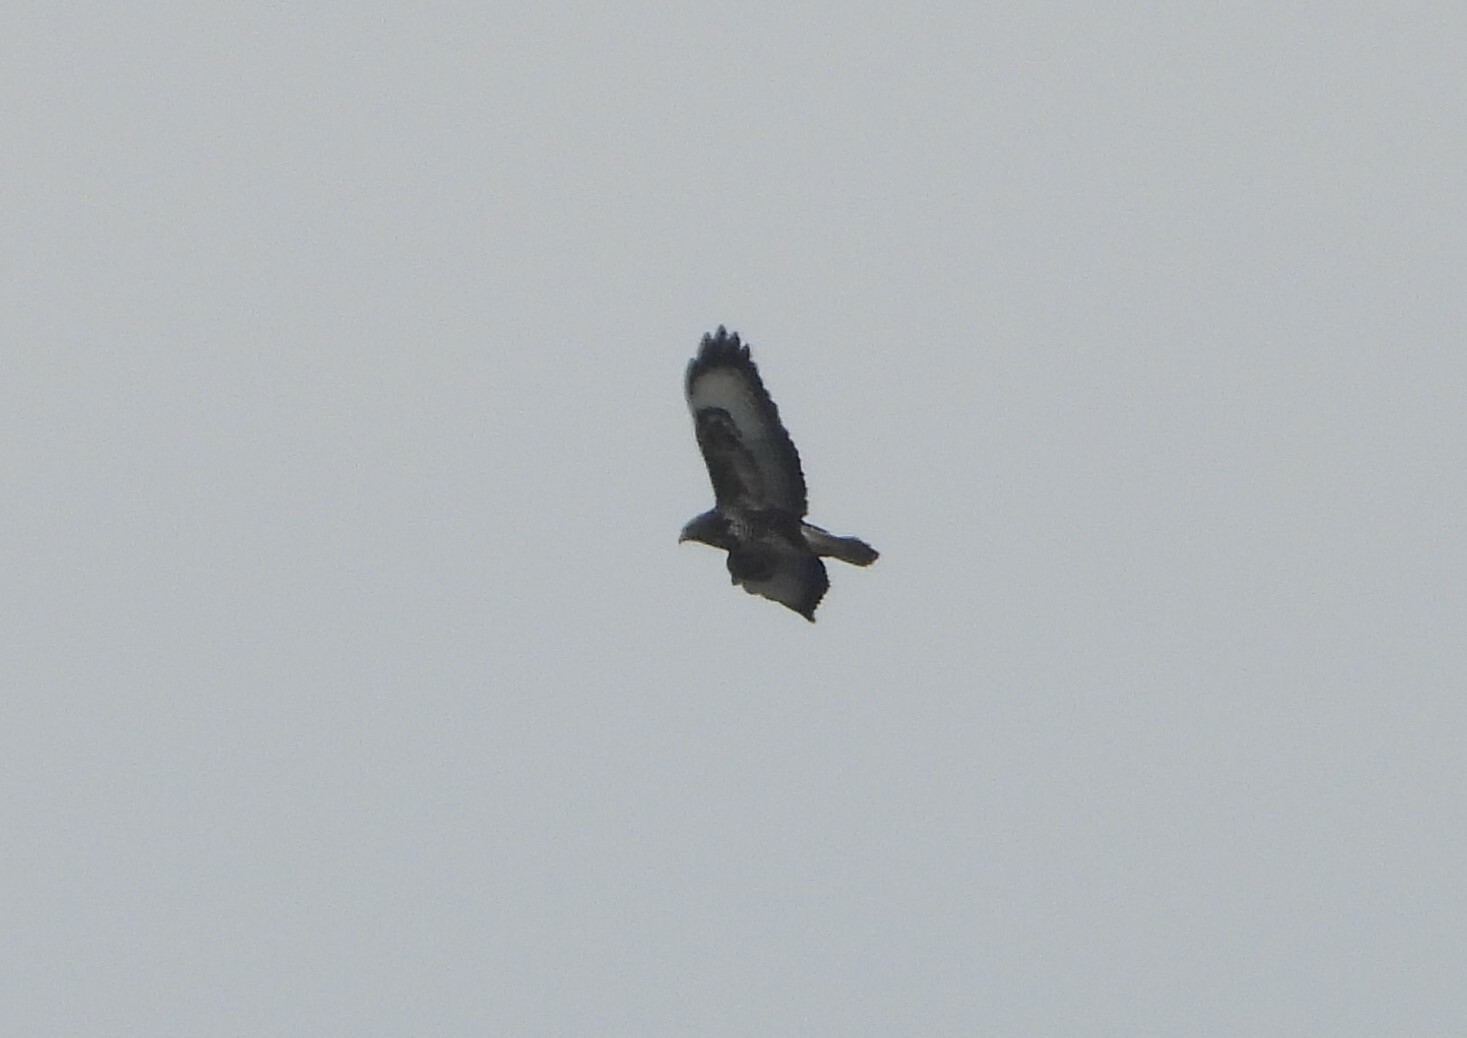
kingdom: Animalia
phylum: Chordata
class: Aves
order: Accipitriformes
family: Accipitridae
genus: Buteo
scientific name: Buteo buteo
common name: Common buzzard
